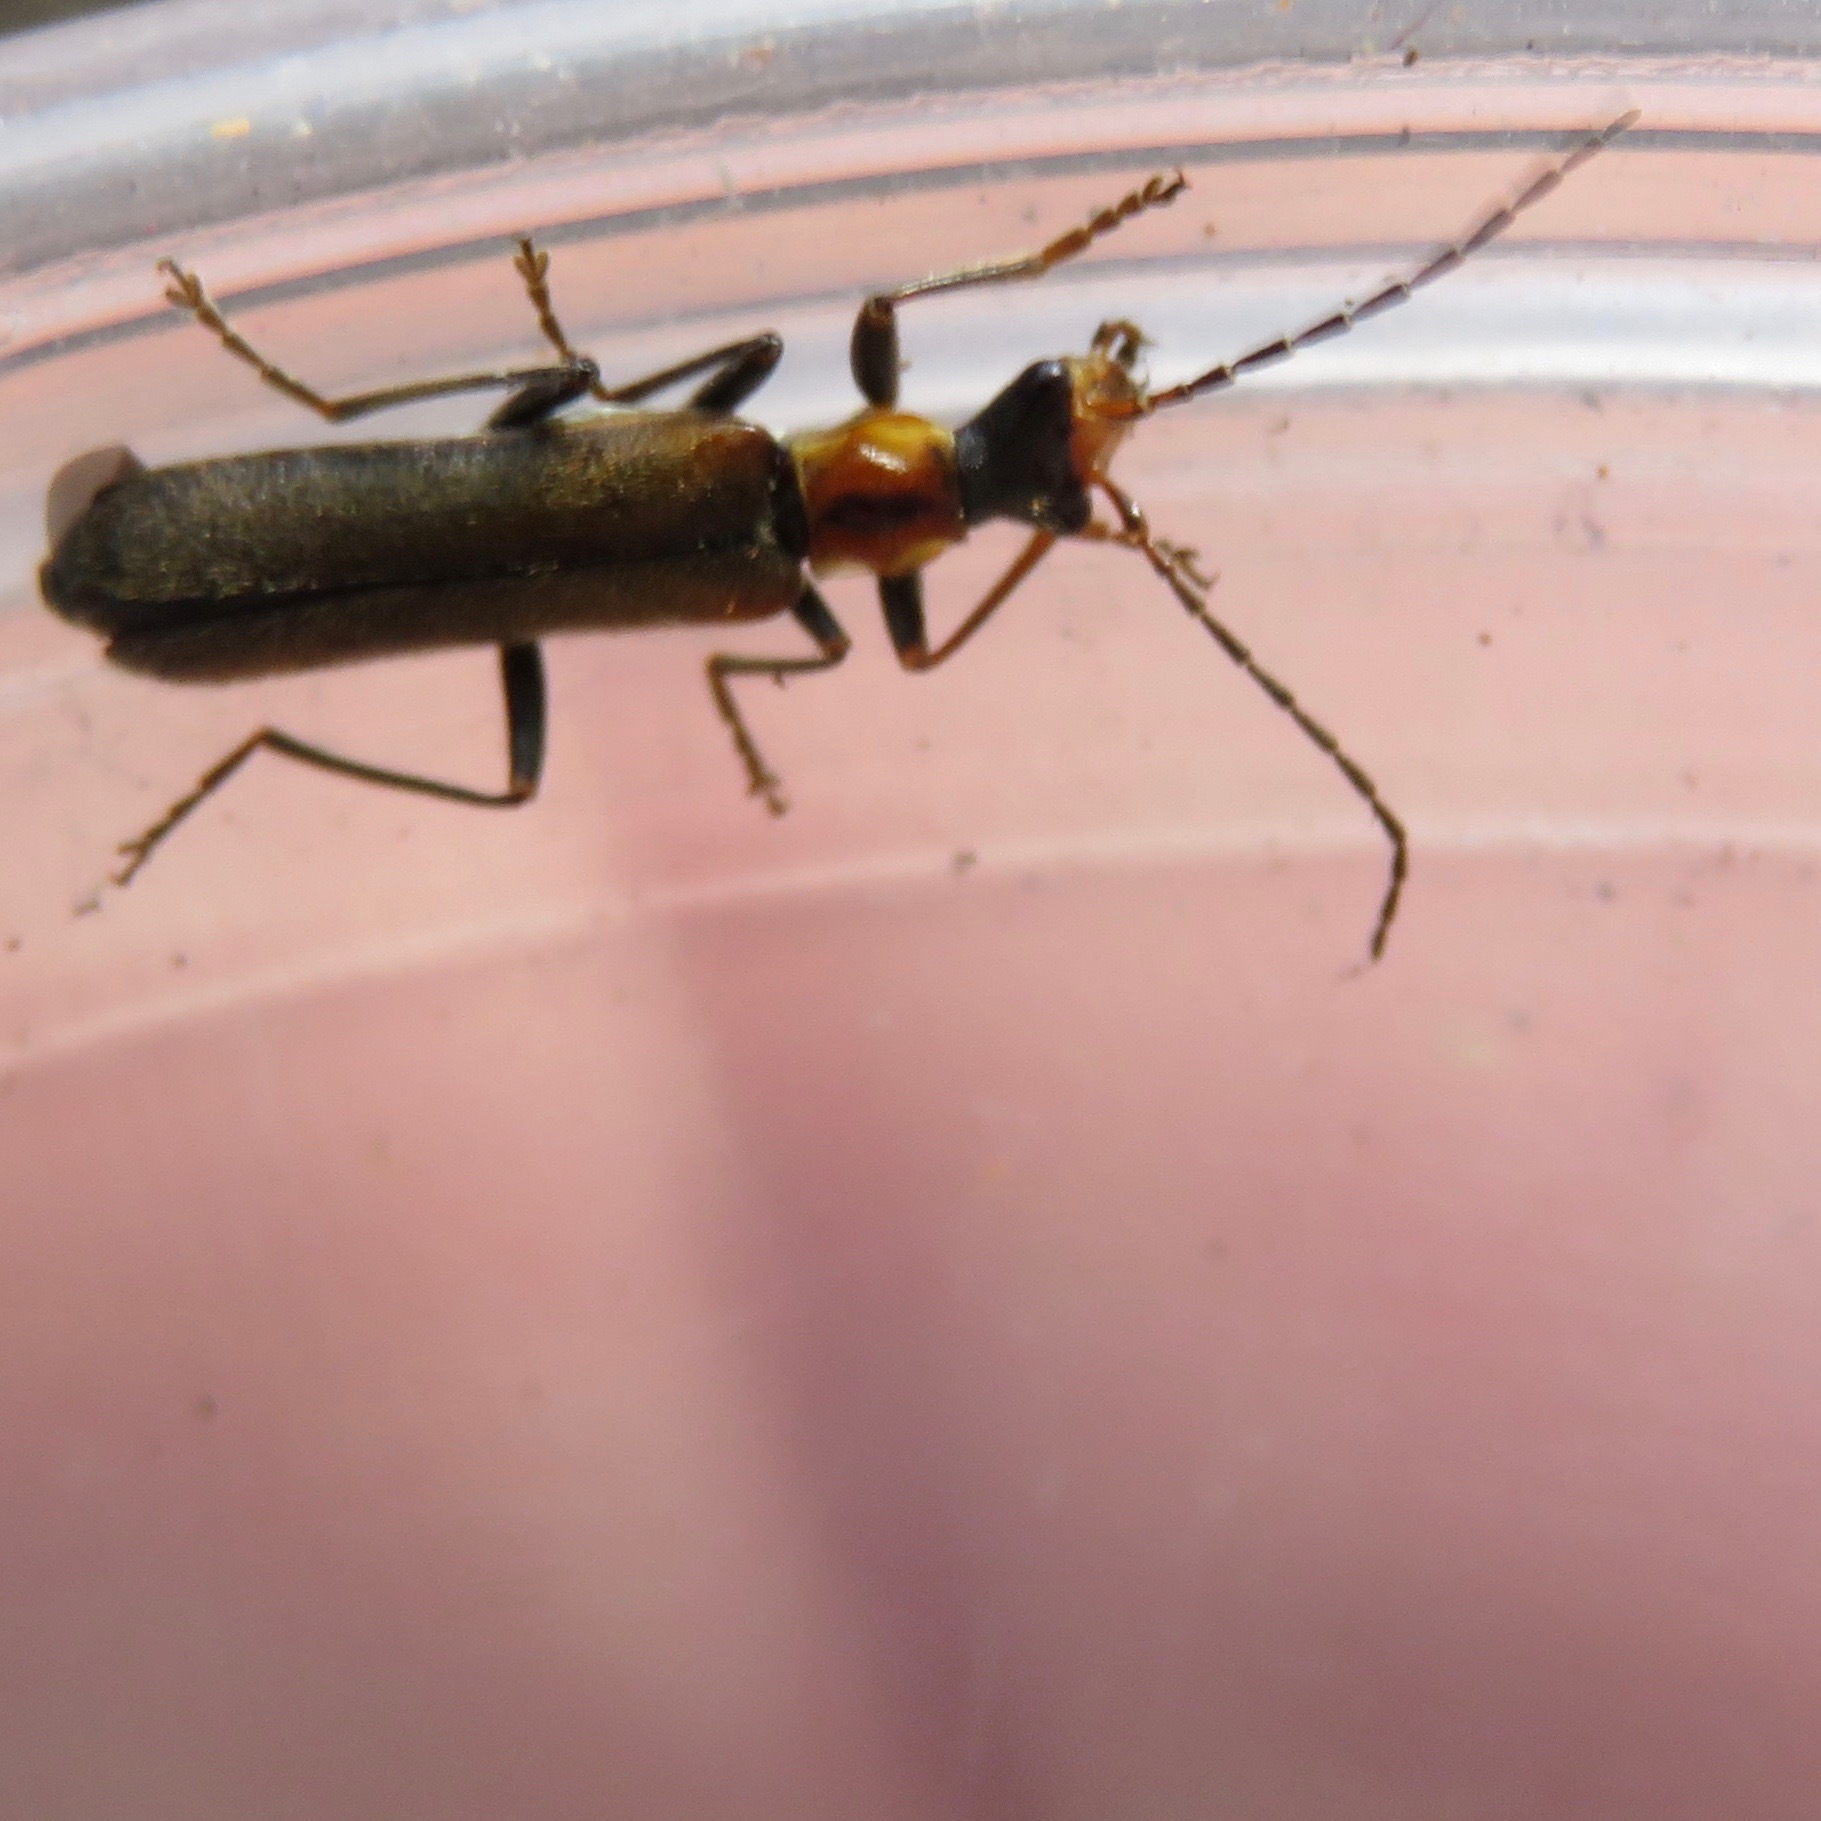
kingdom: Animalia
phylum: Arthropoda
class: Insecta
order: Coleoptera
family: Cantharidae
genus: Dichelotarsus
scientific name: Dichelotarsus cavicollis
